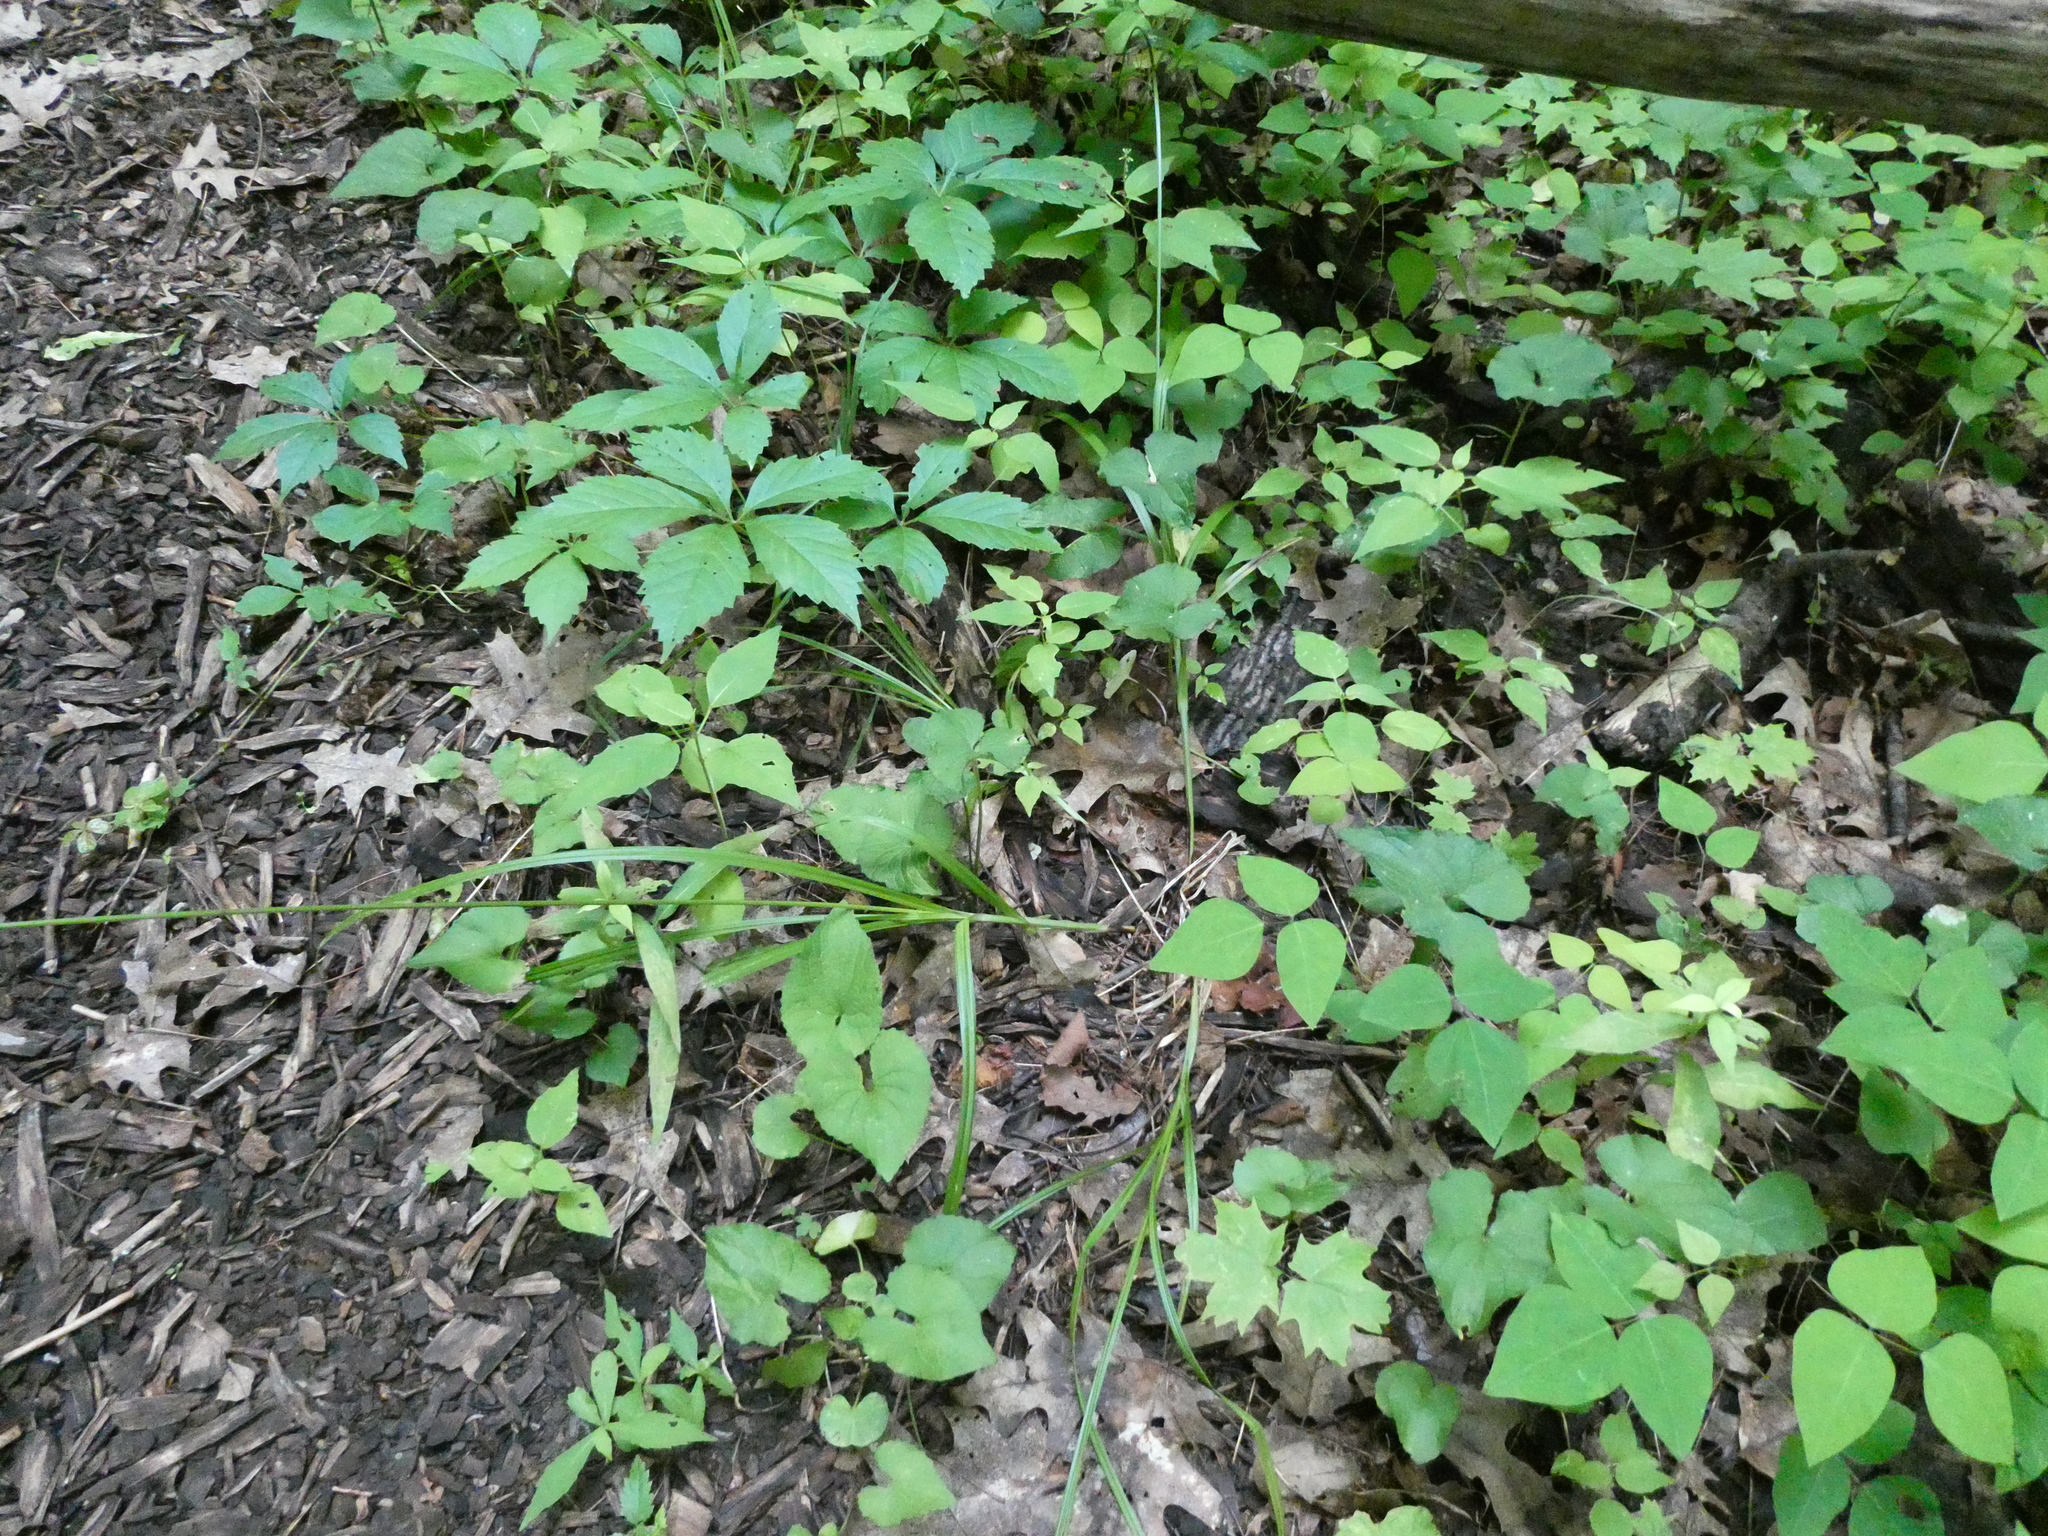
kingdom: Plantae
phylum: Tracheophyta
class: Liliopsida
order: Poales
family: Cyperaceae
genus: Carex
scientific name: Carex sparganioides
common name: Burreed sedge
